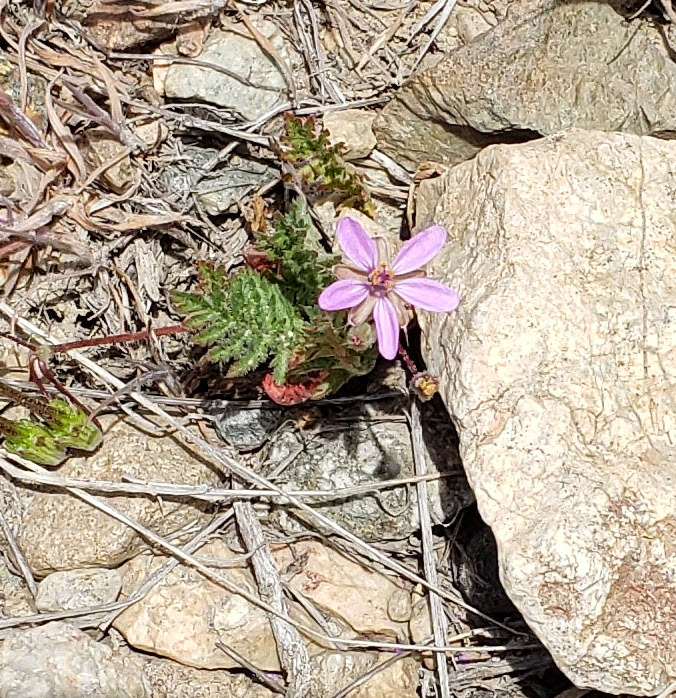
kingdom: Plantae
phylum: Tracheophyta
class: Magnoliopsida
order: Geraniales
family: Geraniaceae
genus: Erodium
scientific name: Erodium cicutarium
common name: Common stork's-bill
